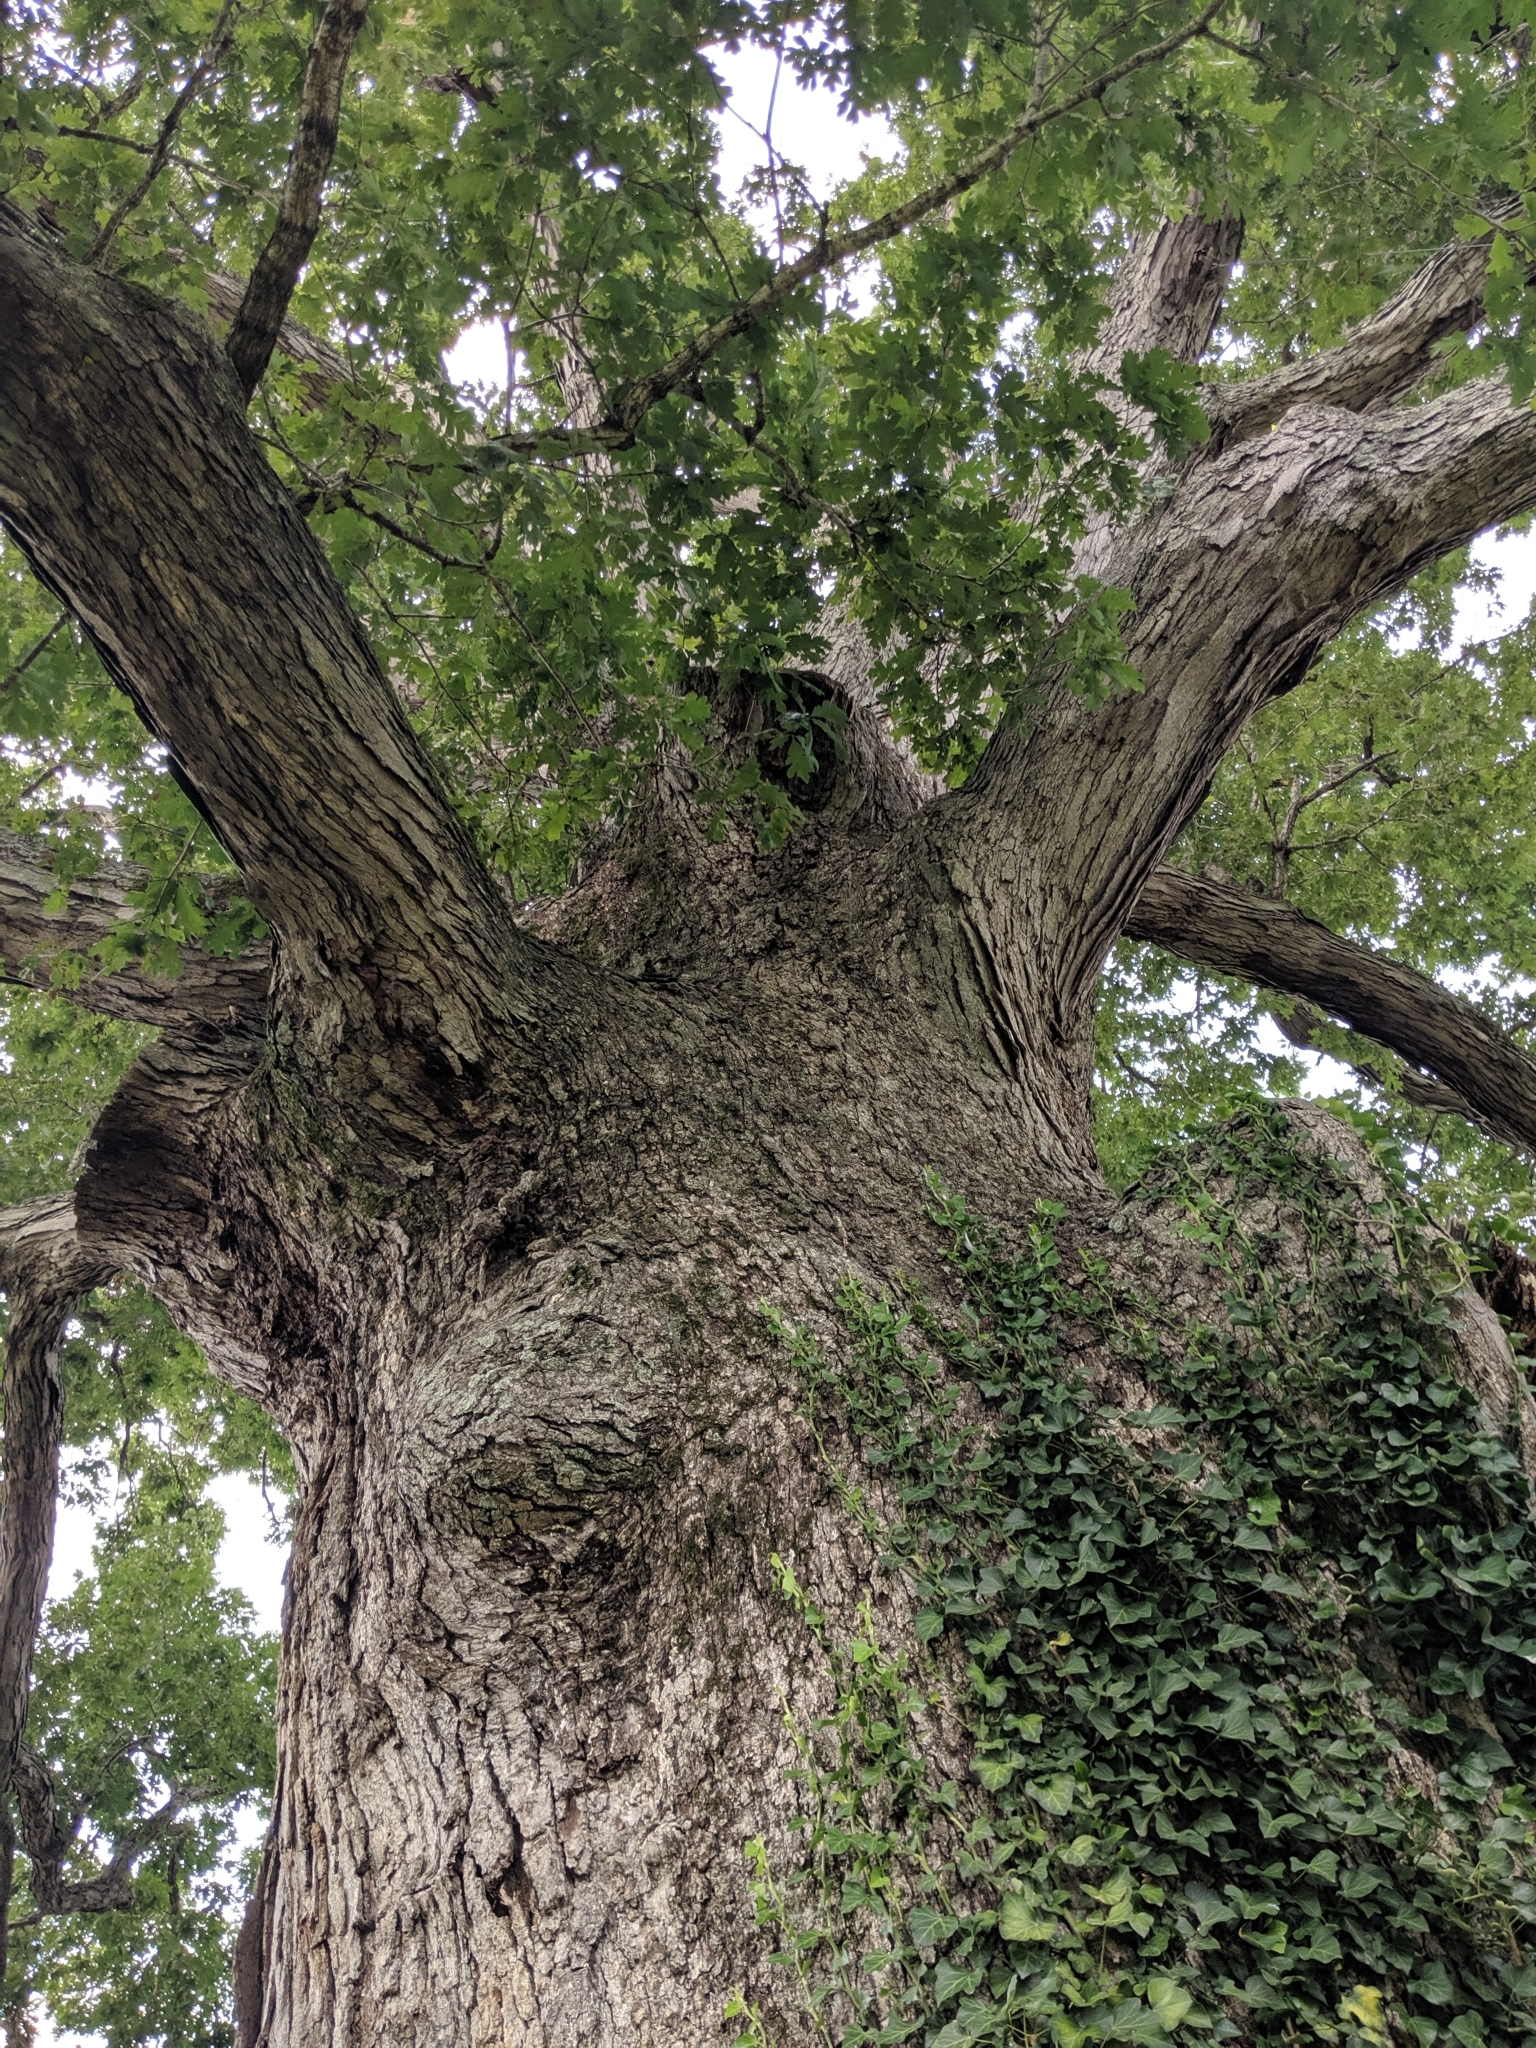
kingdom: Plantae
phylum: Tracheophyta
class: Magnoliopsida
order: Fagales
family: Fagaceae
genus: Quercus
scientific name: Quercus alba
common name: White oak
